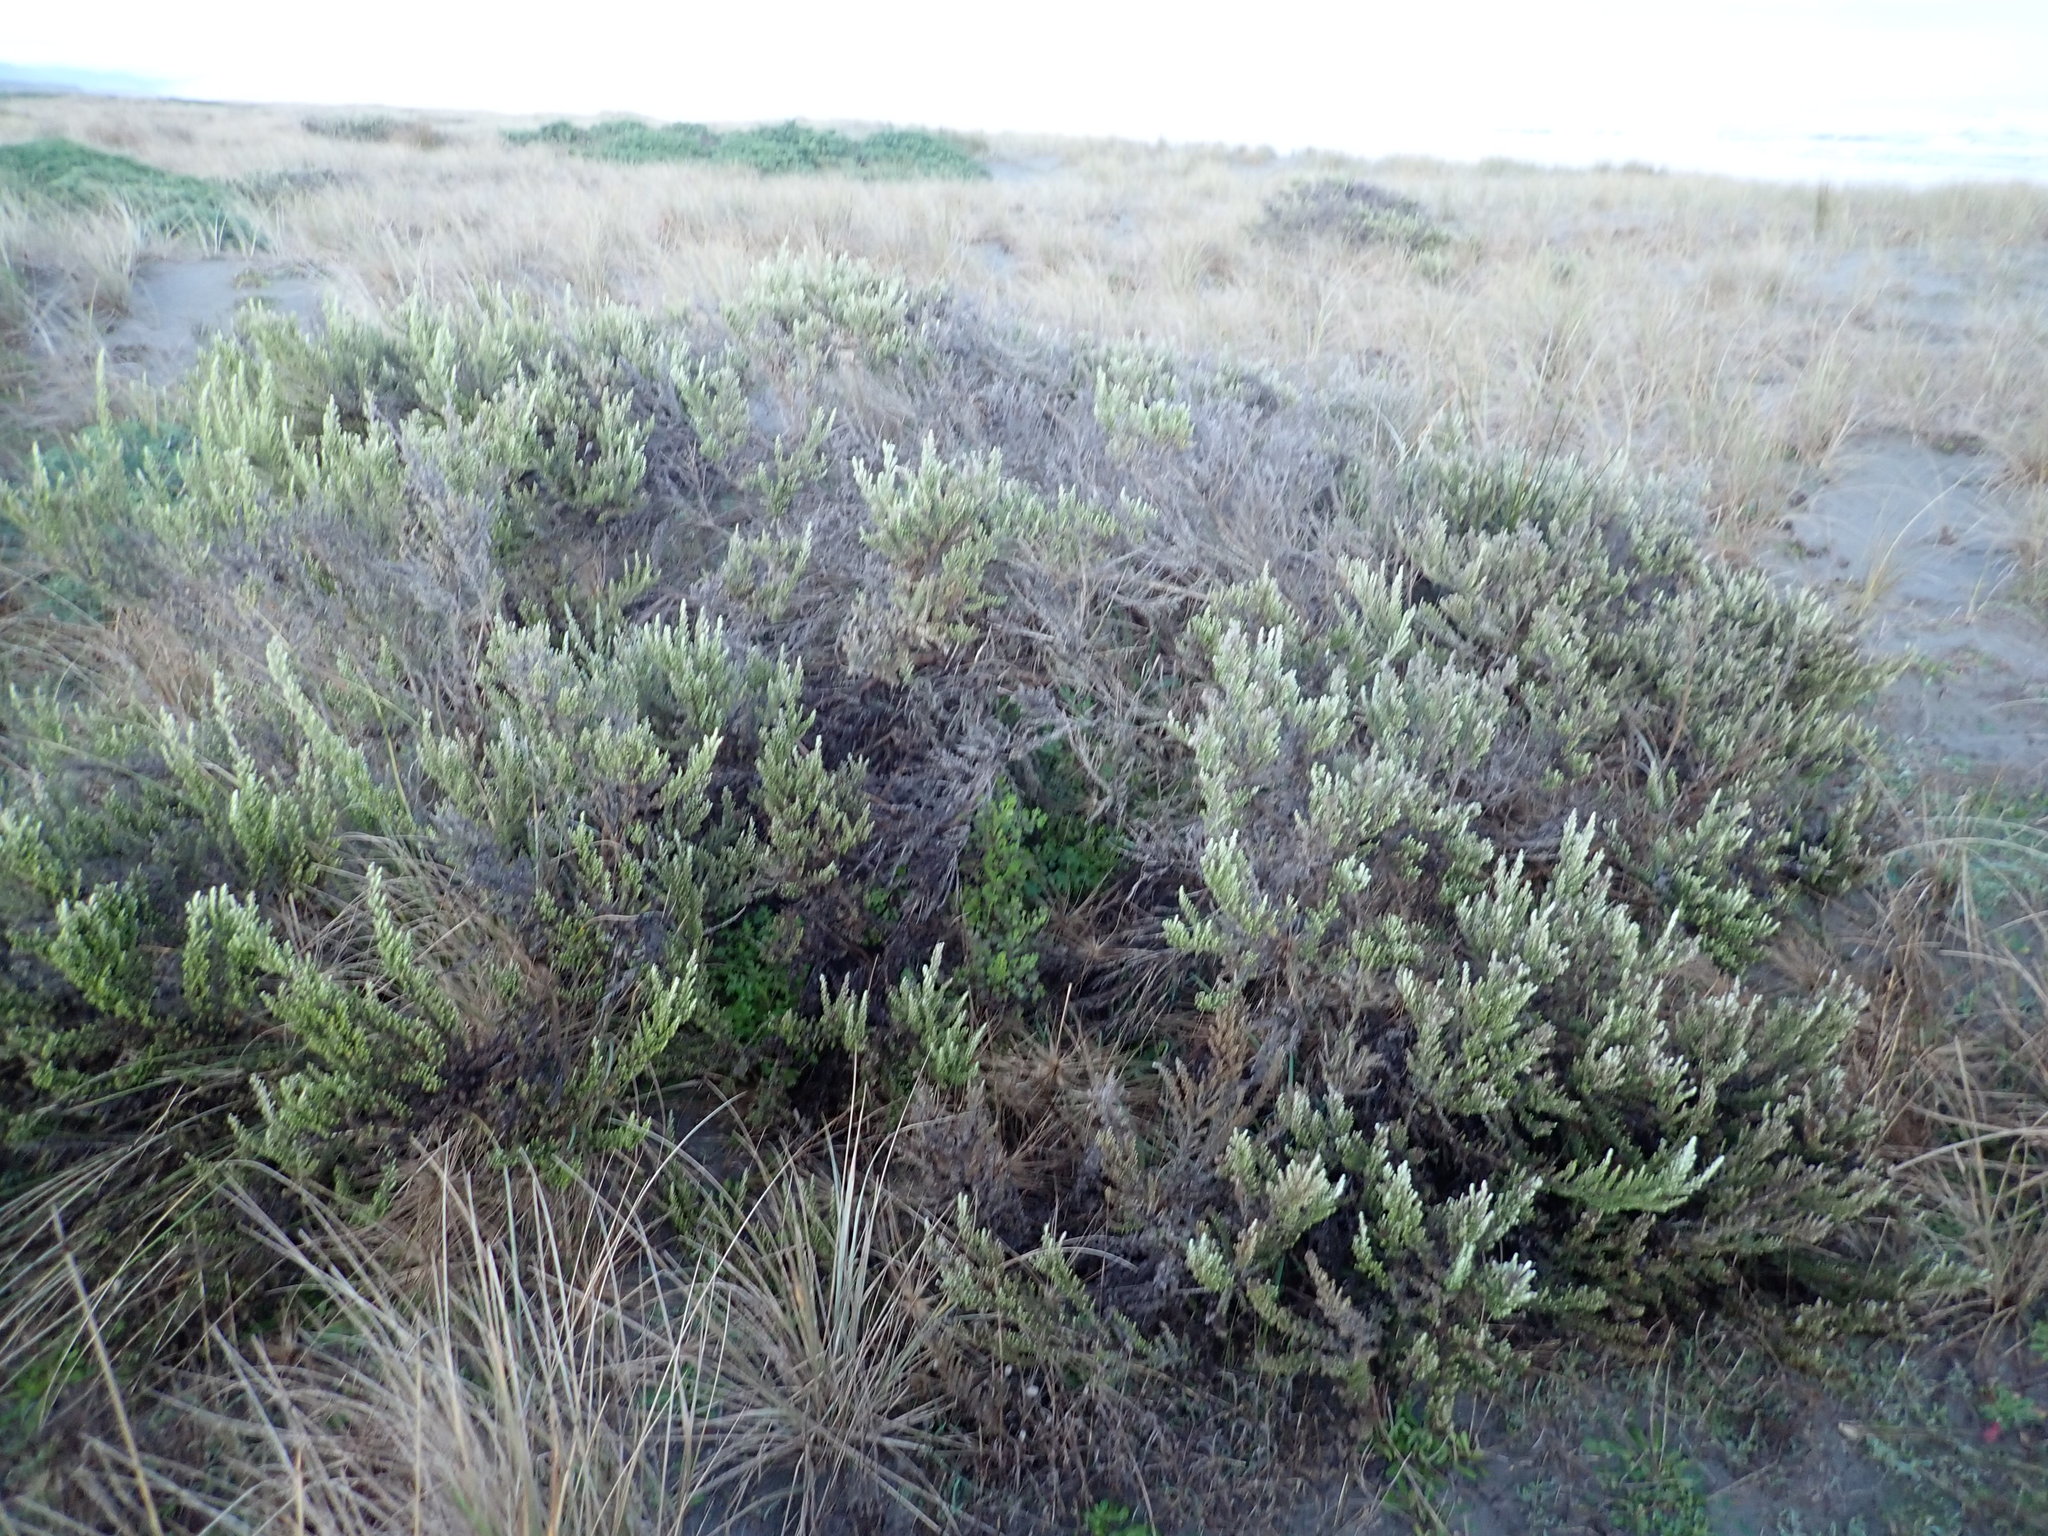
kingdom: Plantae
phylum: Tracheophyta
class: Magnoliopsida
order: Asterales
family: Asteraceae
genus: Ozothamnus
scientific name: Ozothamnus leptophyllus
